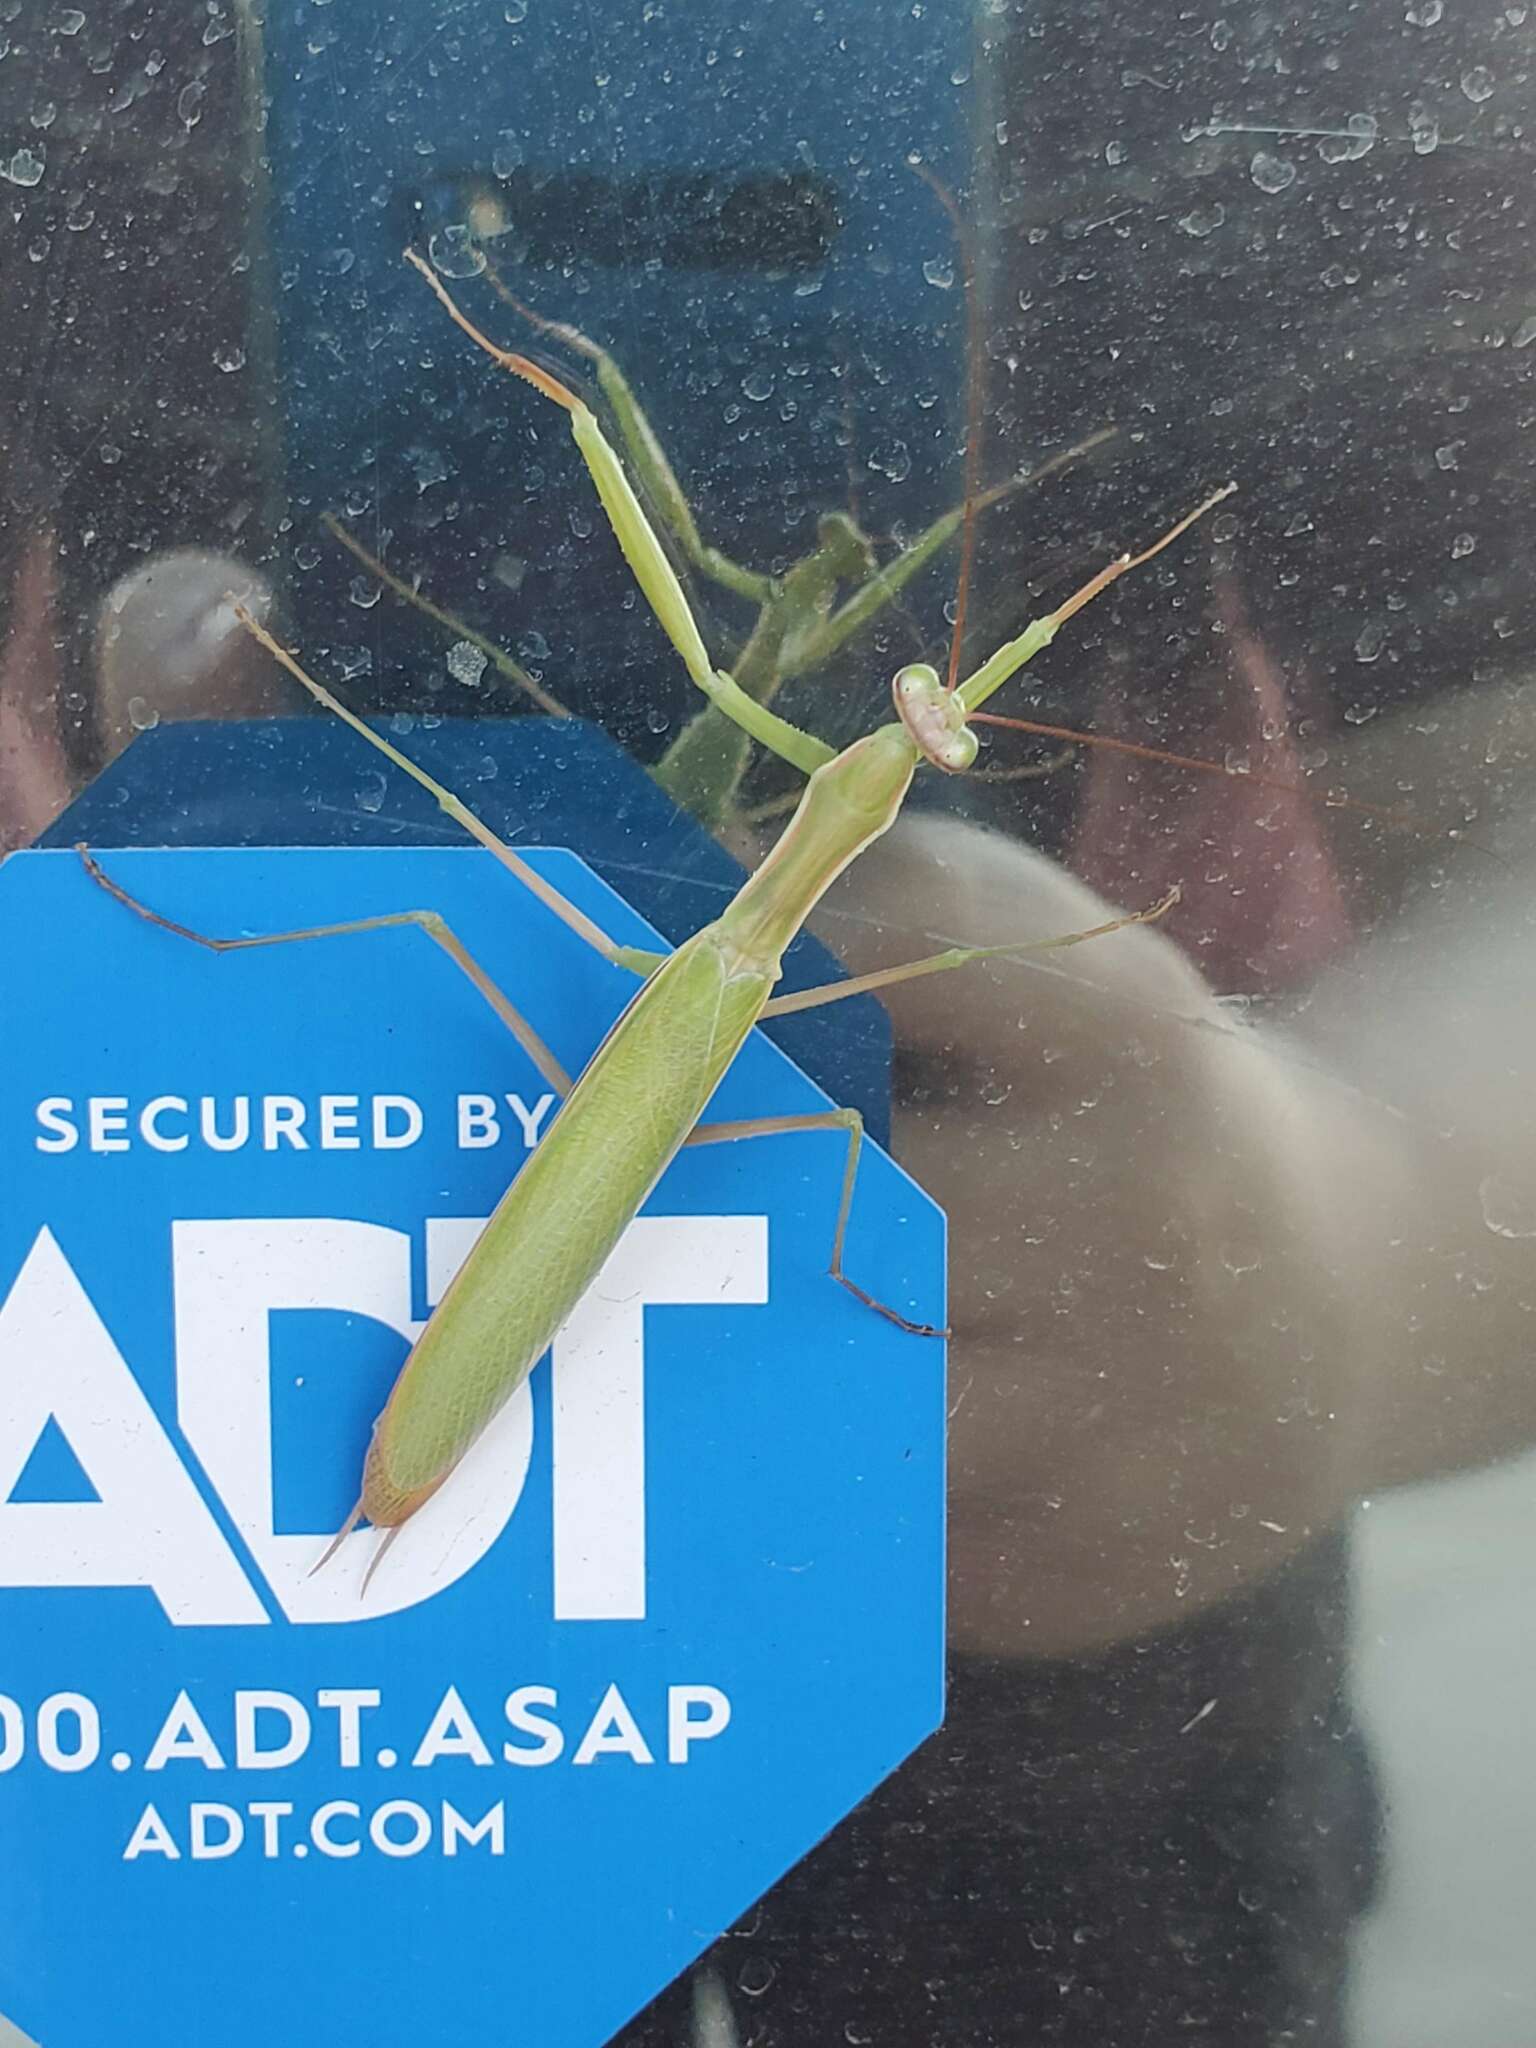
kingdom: Animalia
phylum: Arthropoda
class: Insecta
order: Mantodea
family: Mantidae
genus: Mantis
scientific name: Mantis religiosa
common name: Praying mantis
